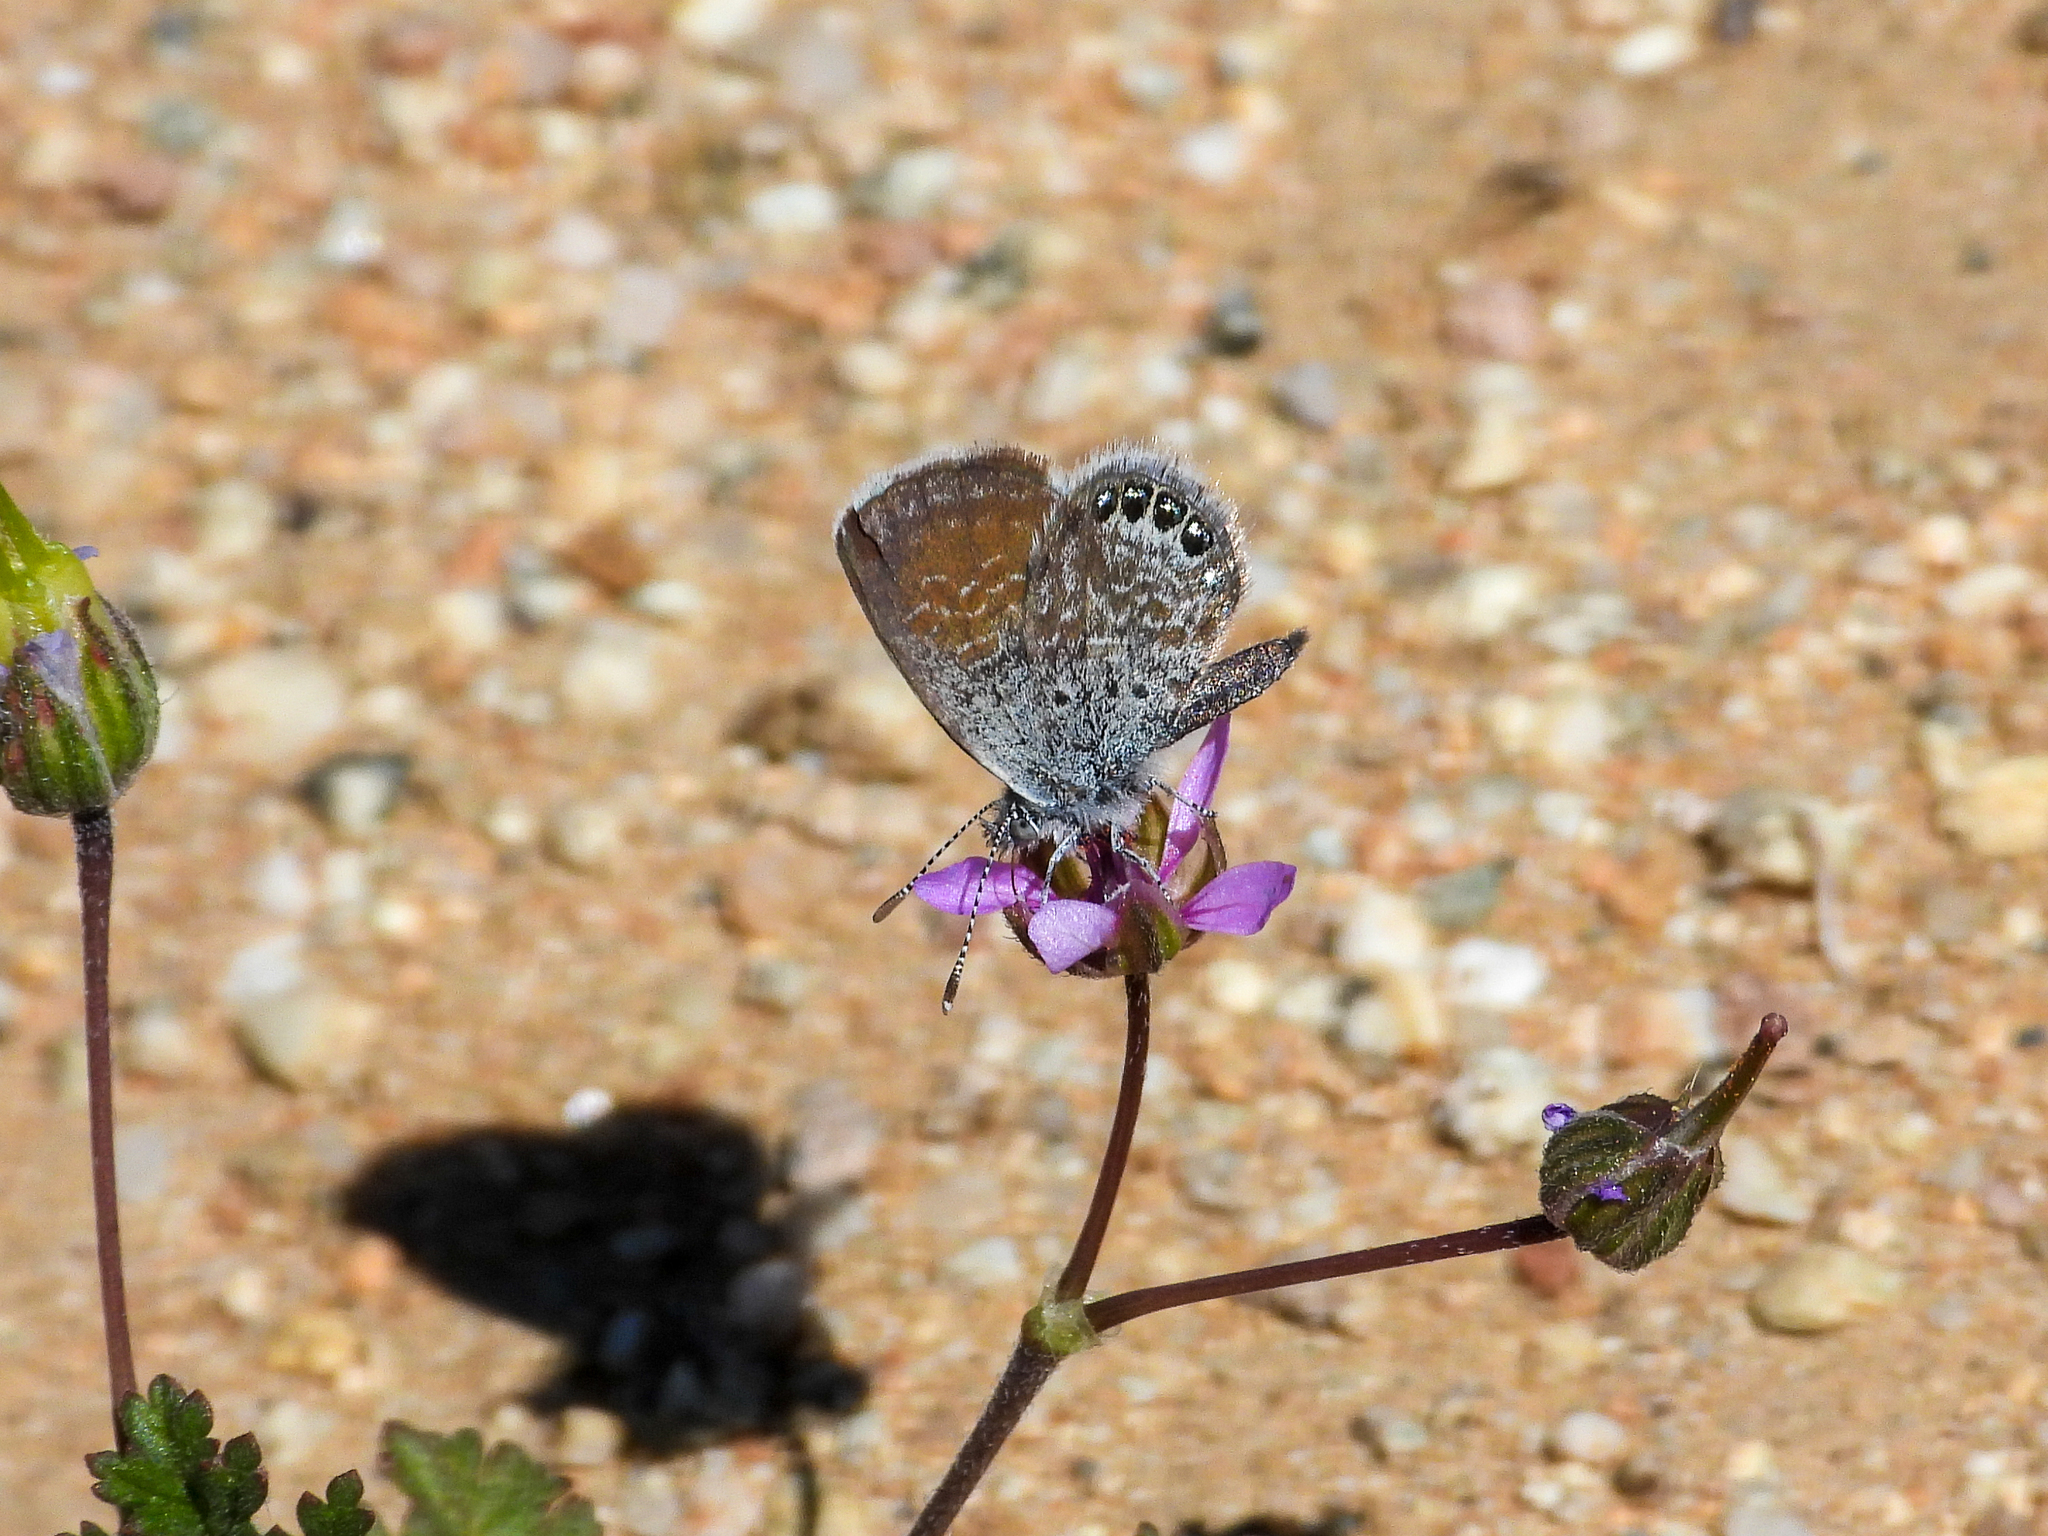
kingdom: Animalia
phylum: Arthropoda
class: Insecta
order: Lepidoptera
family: Lycaenidae
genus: Brephidium
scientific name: Brephidium exilis
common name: Pygmy blue
